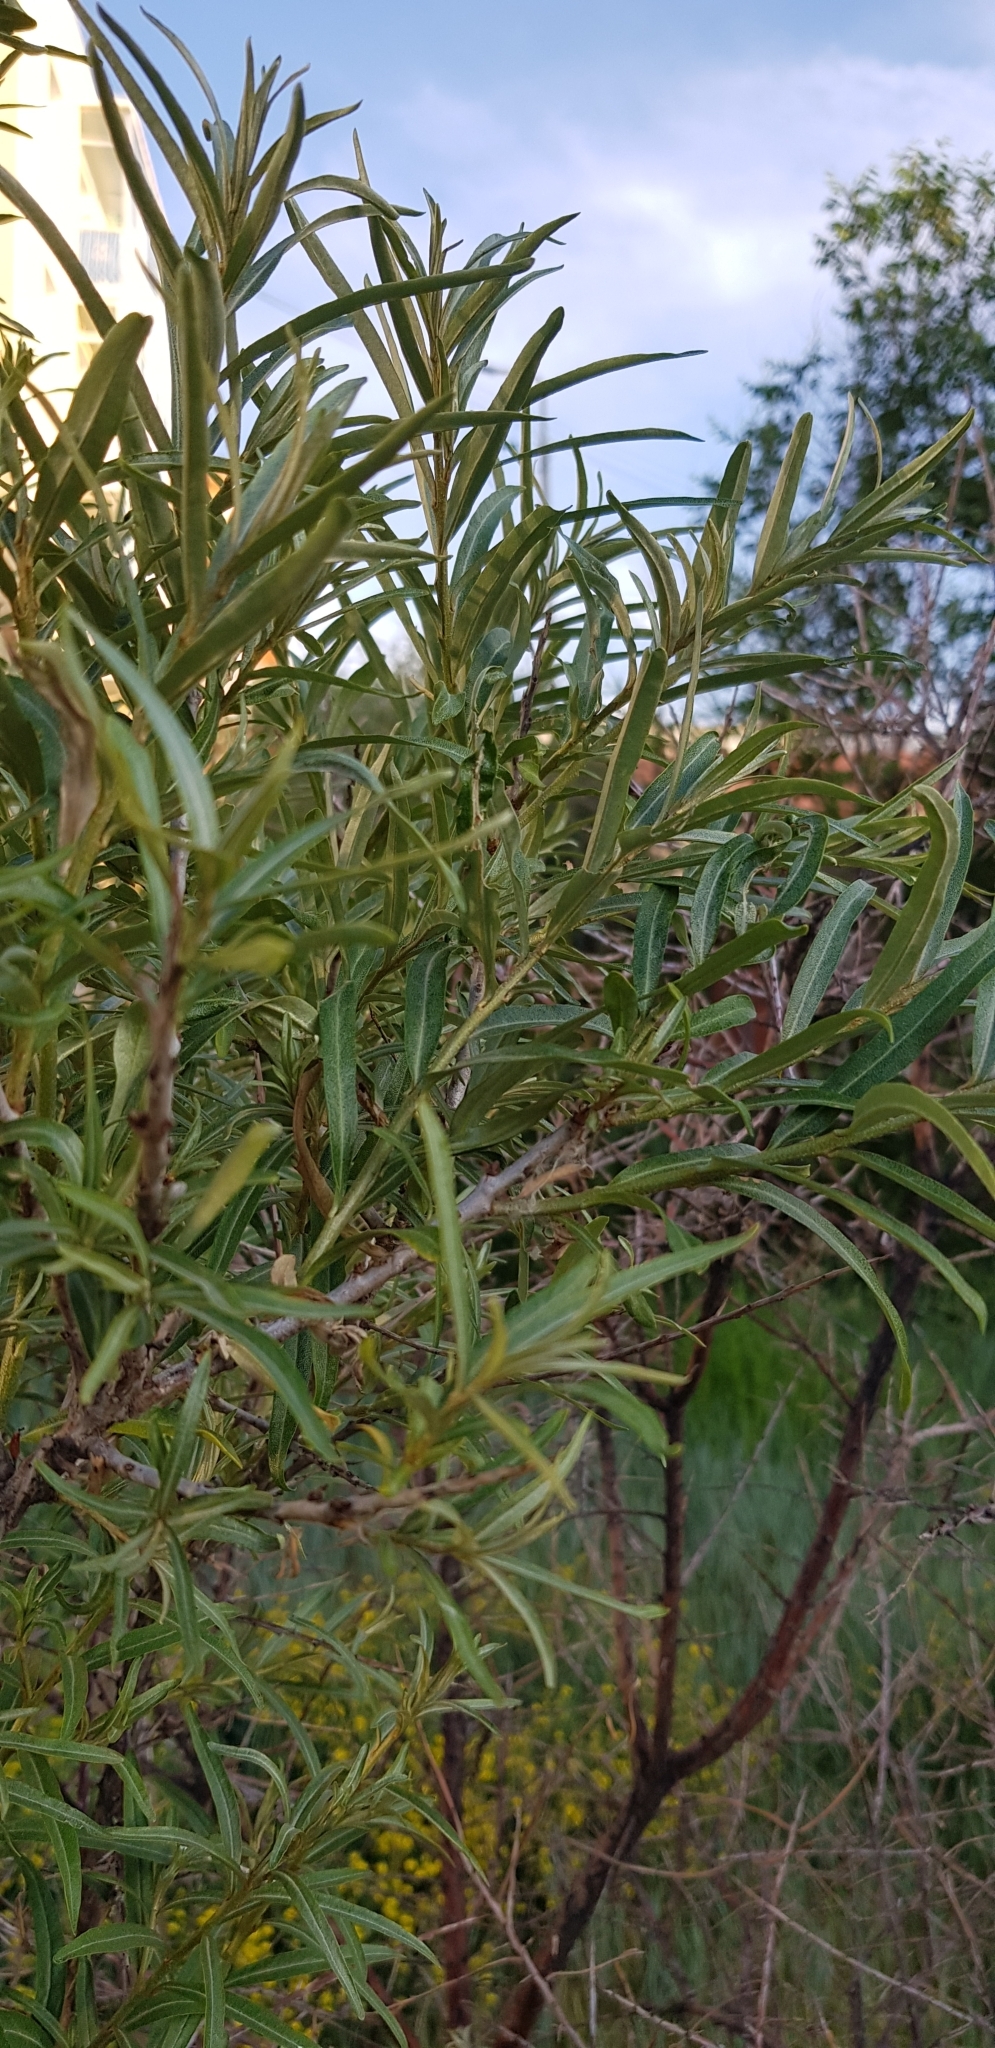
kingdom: Plantae
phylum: Tracheophyta
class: Magnoliopsida
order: Malpighiales
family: Salicaceae
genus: Salix
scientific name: Salix viminalis
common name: Osier
